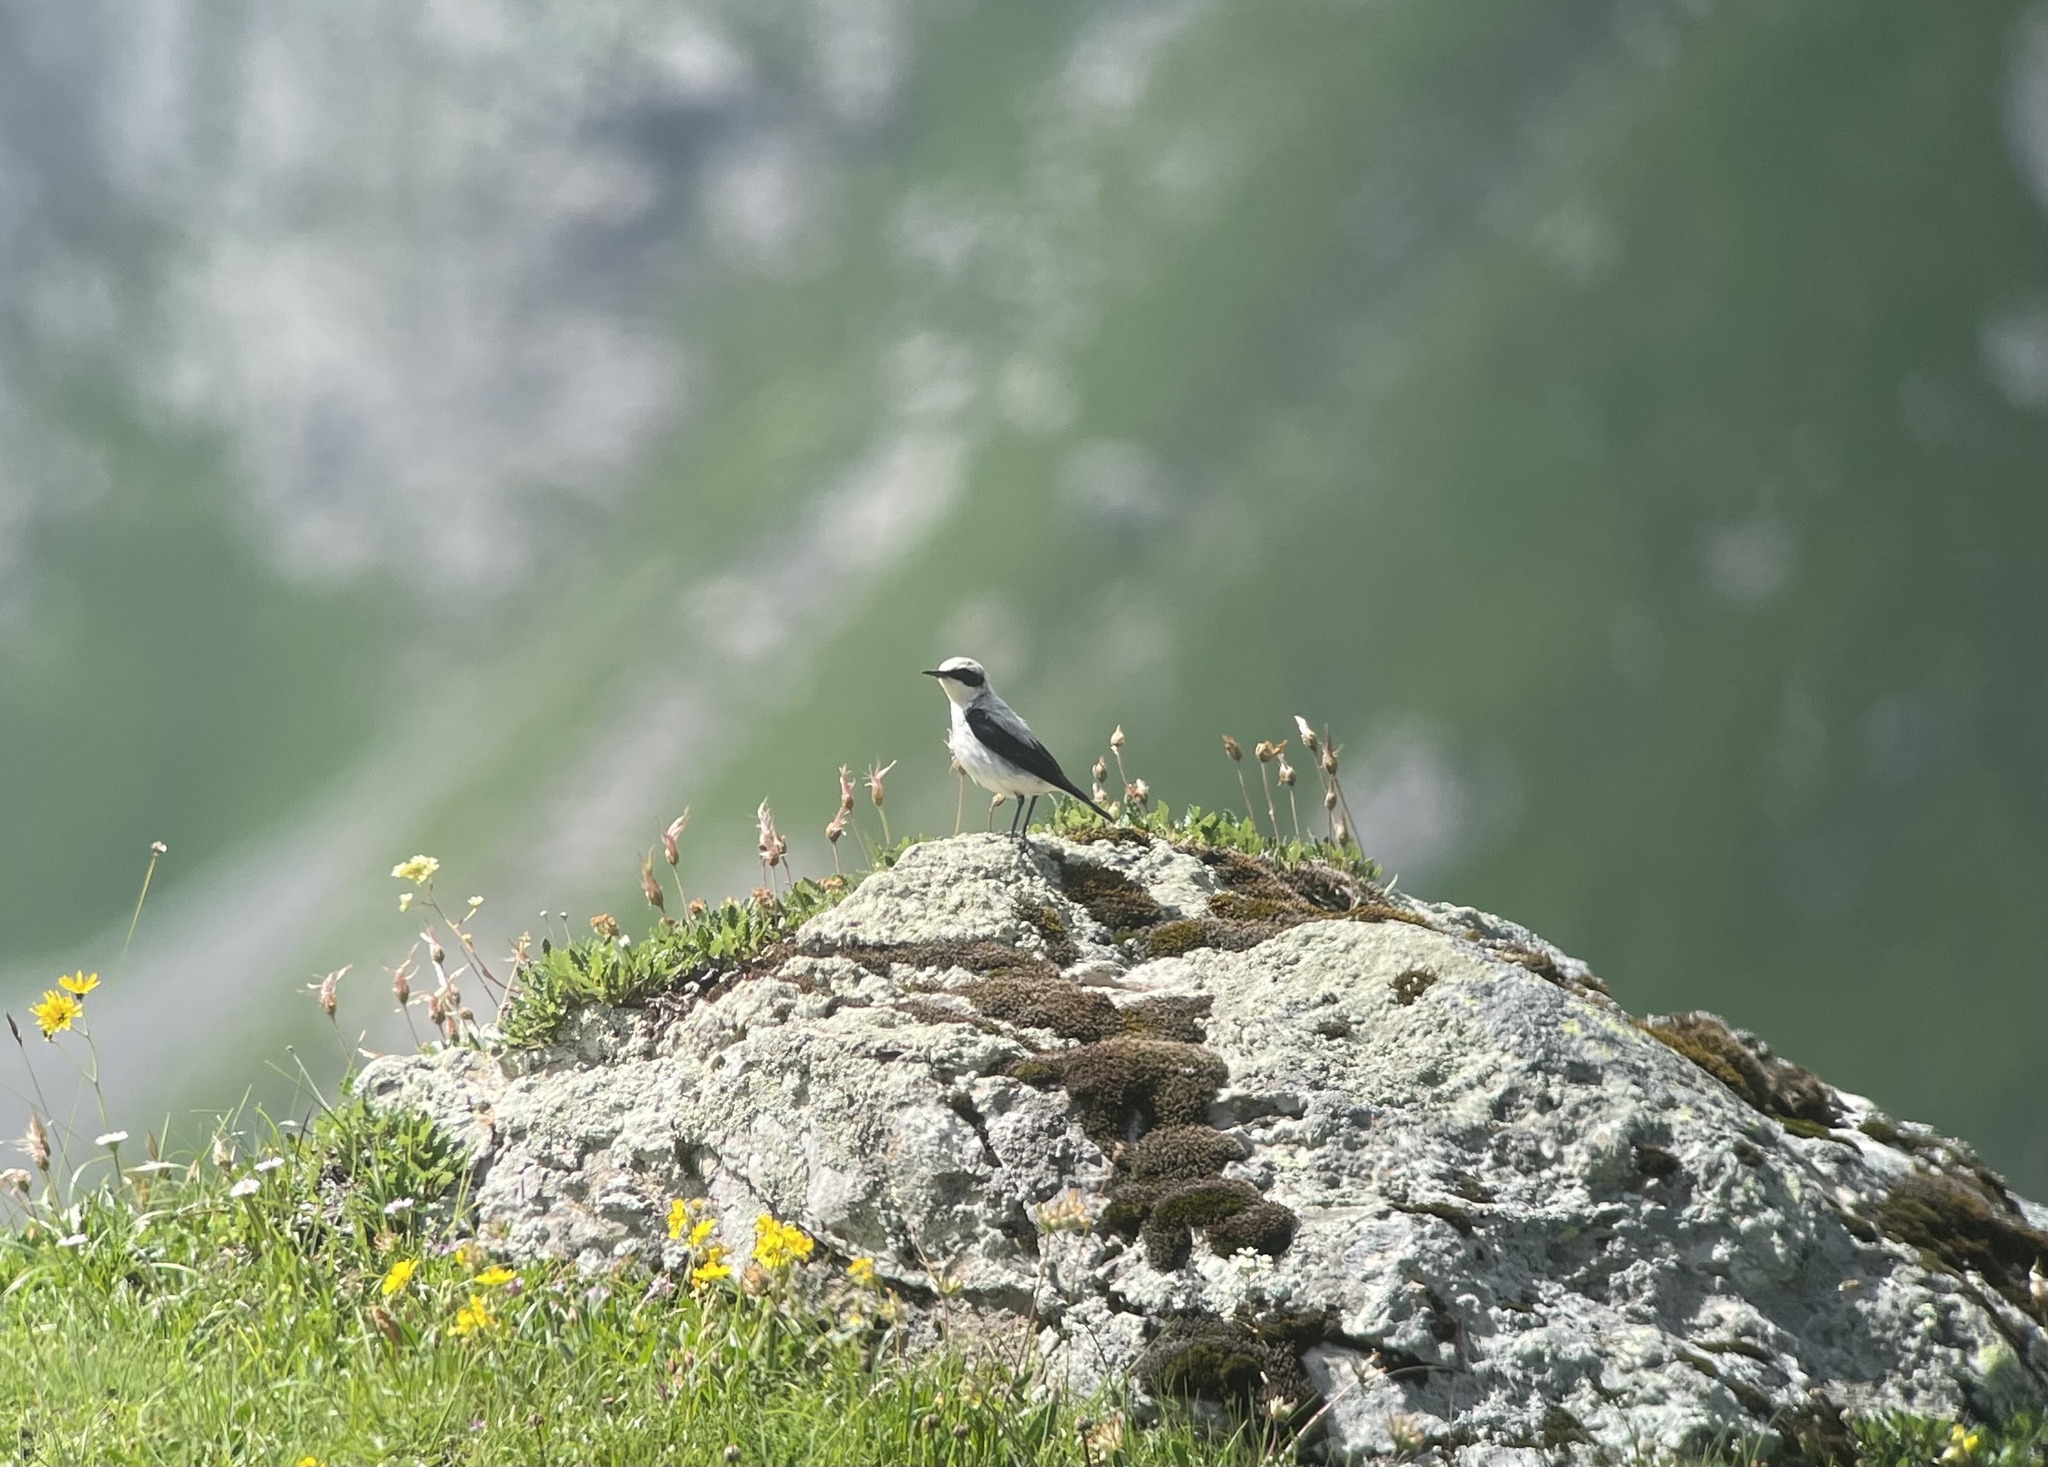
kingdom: Animalia
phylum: Chordata
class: Aves
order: Passeriformes
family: Muscicapidae
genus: Oenanthe
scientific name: Oenanthe oenanthe
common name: Northern wheatear
